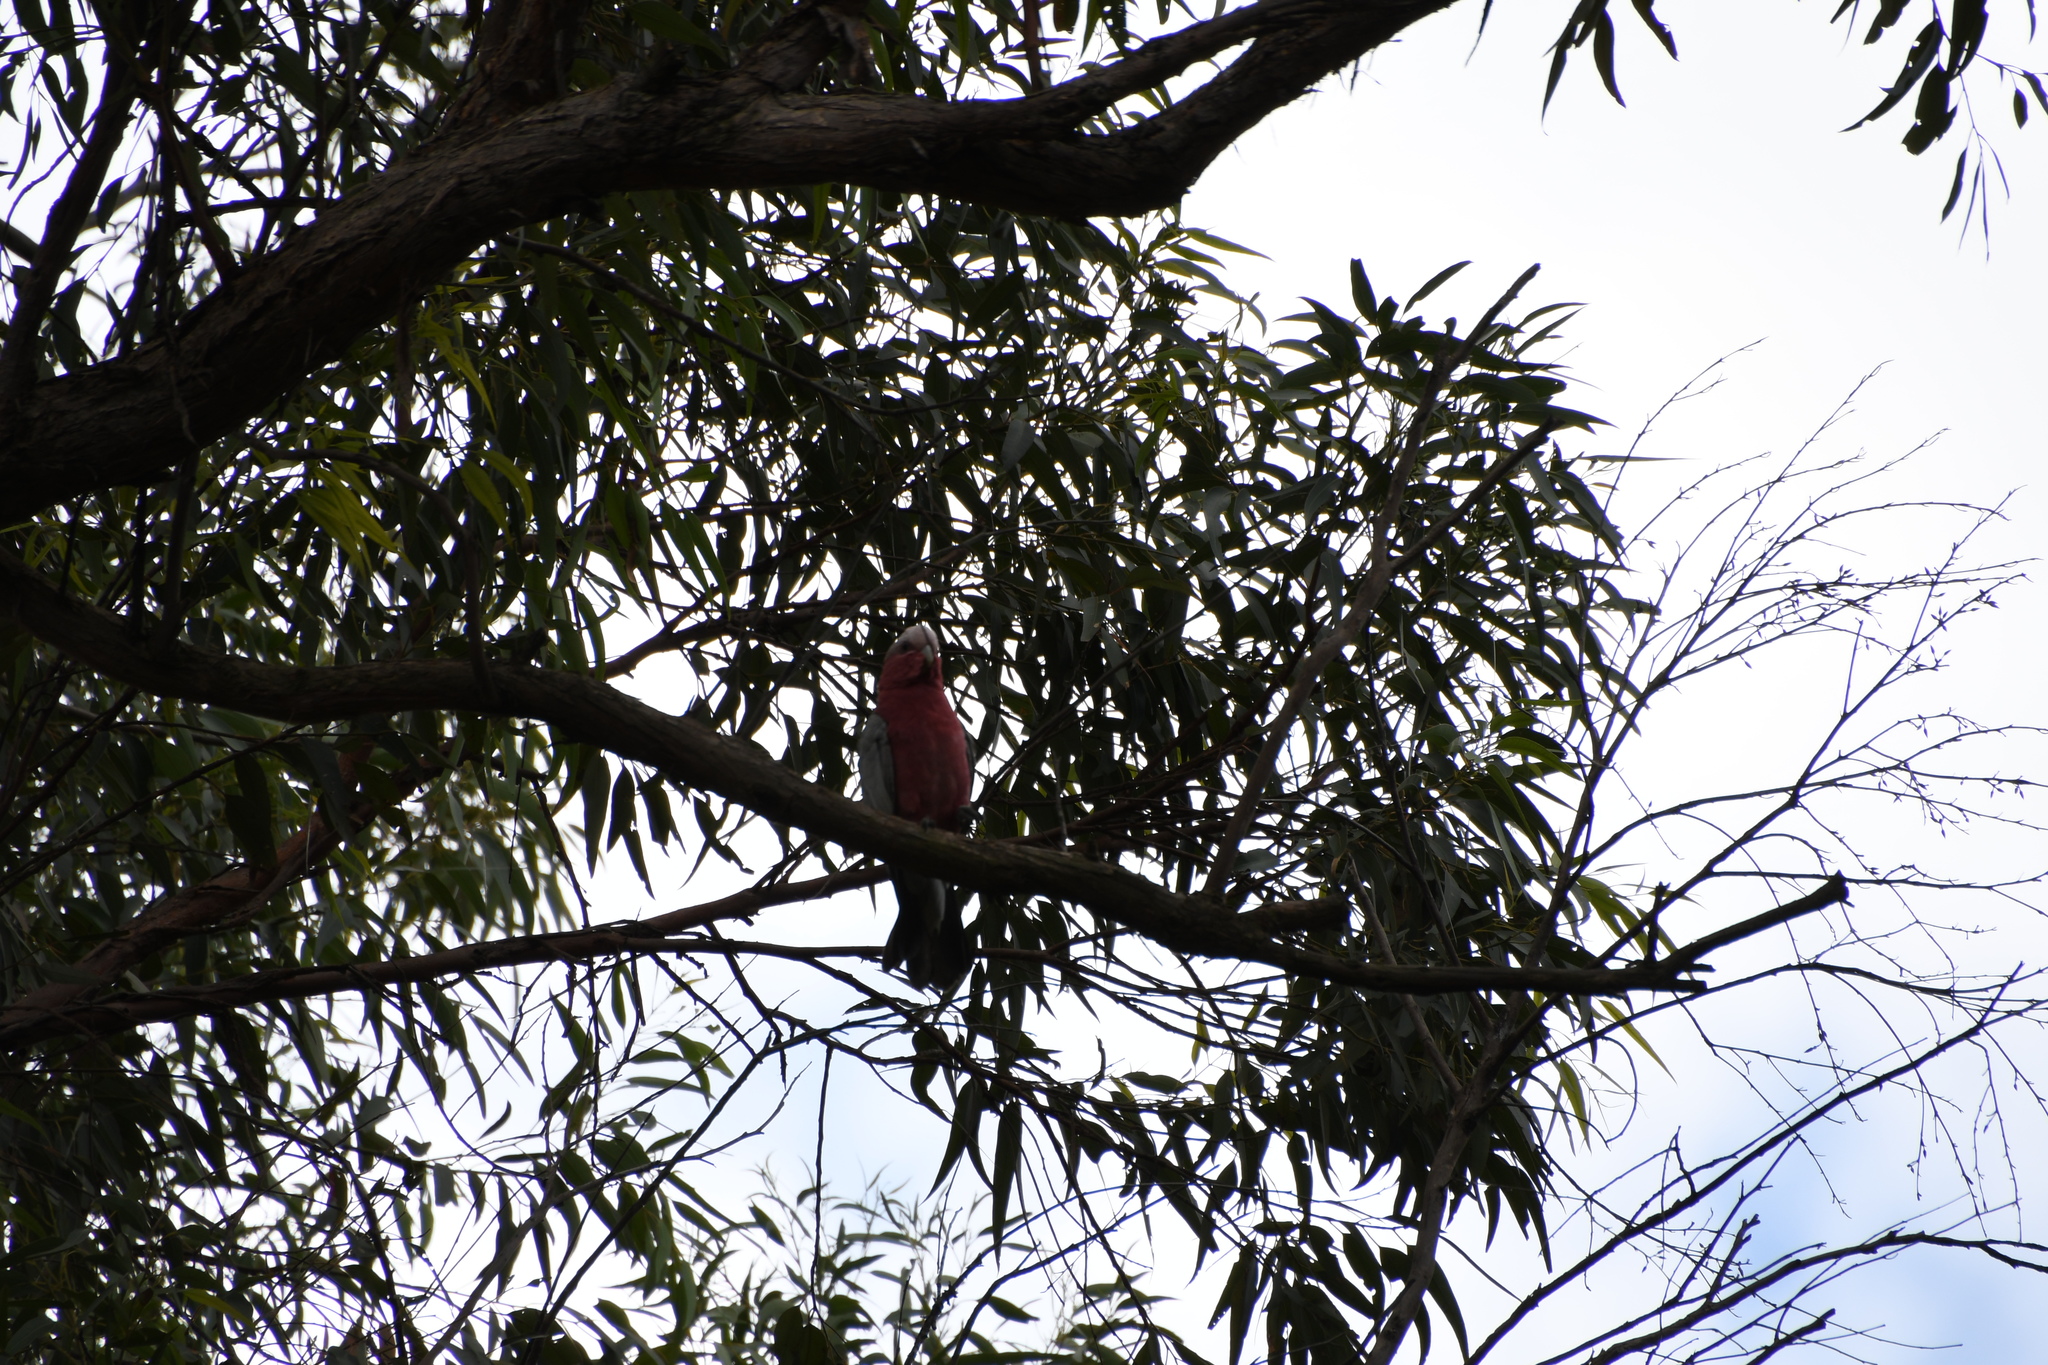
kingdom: Animalia
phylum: Chordata
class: Aves
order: Psittaciformes
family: Psittacidae
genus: Eolophus
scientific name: Eolophus roseicapilla
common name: Galah
